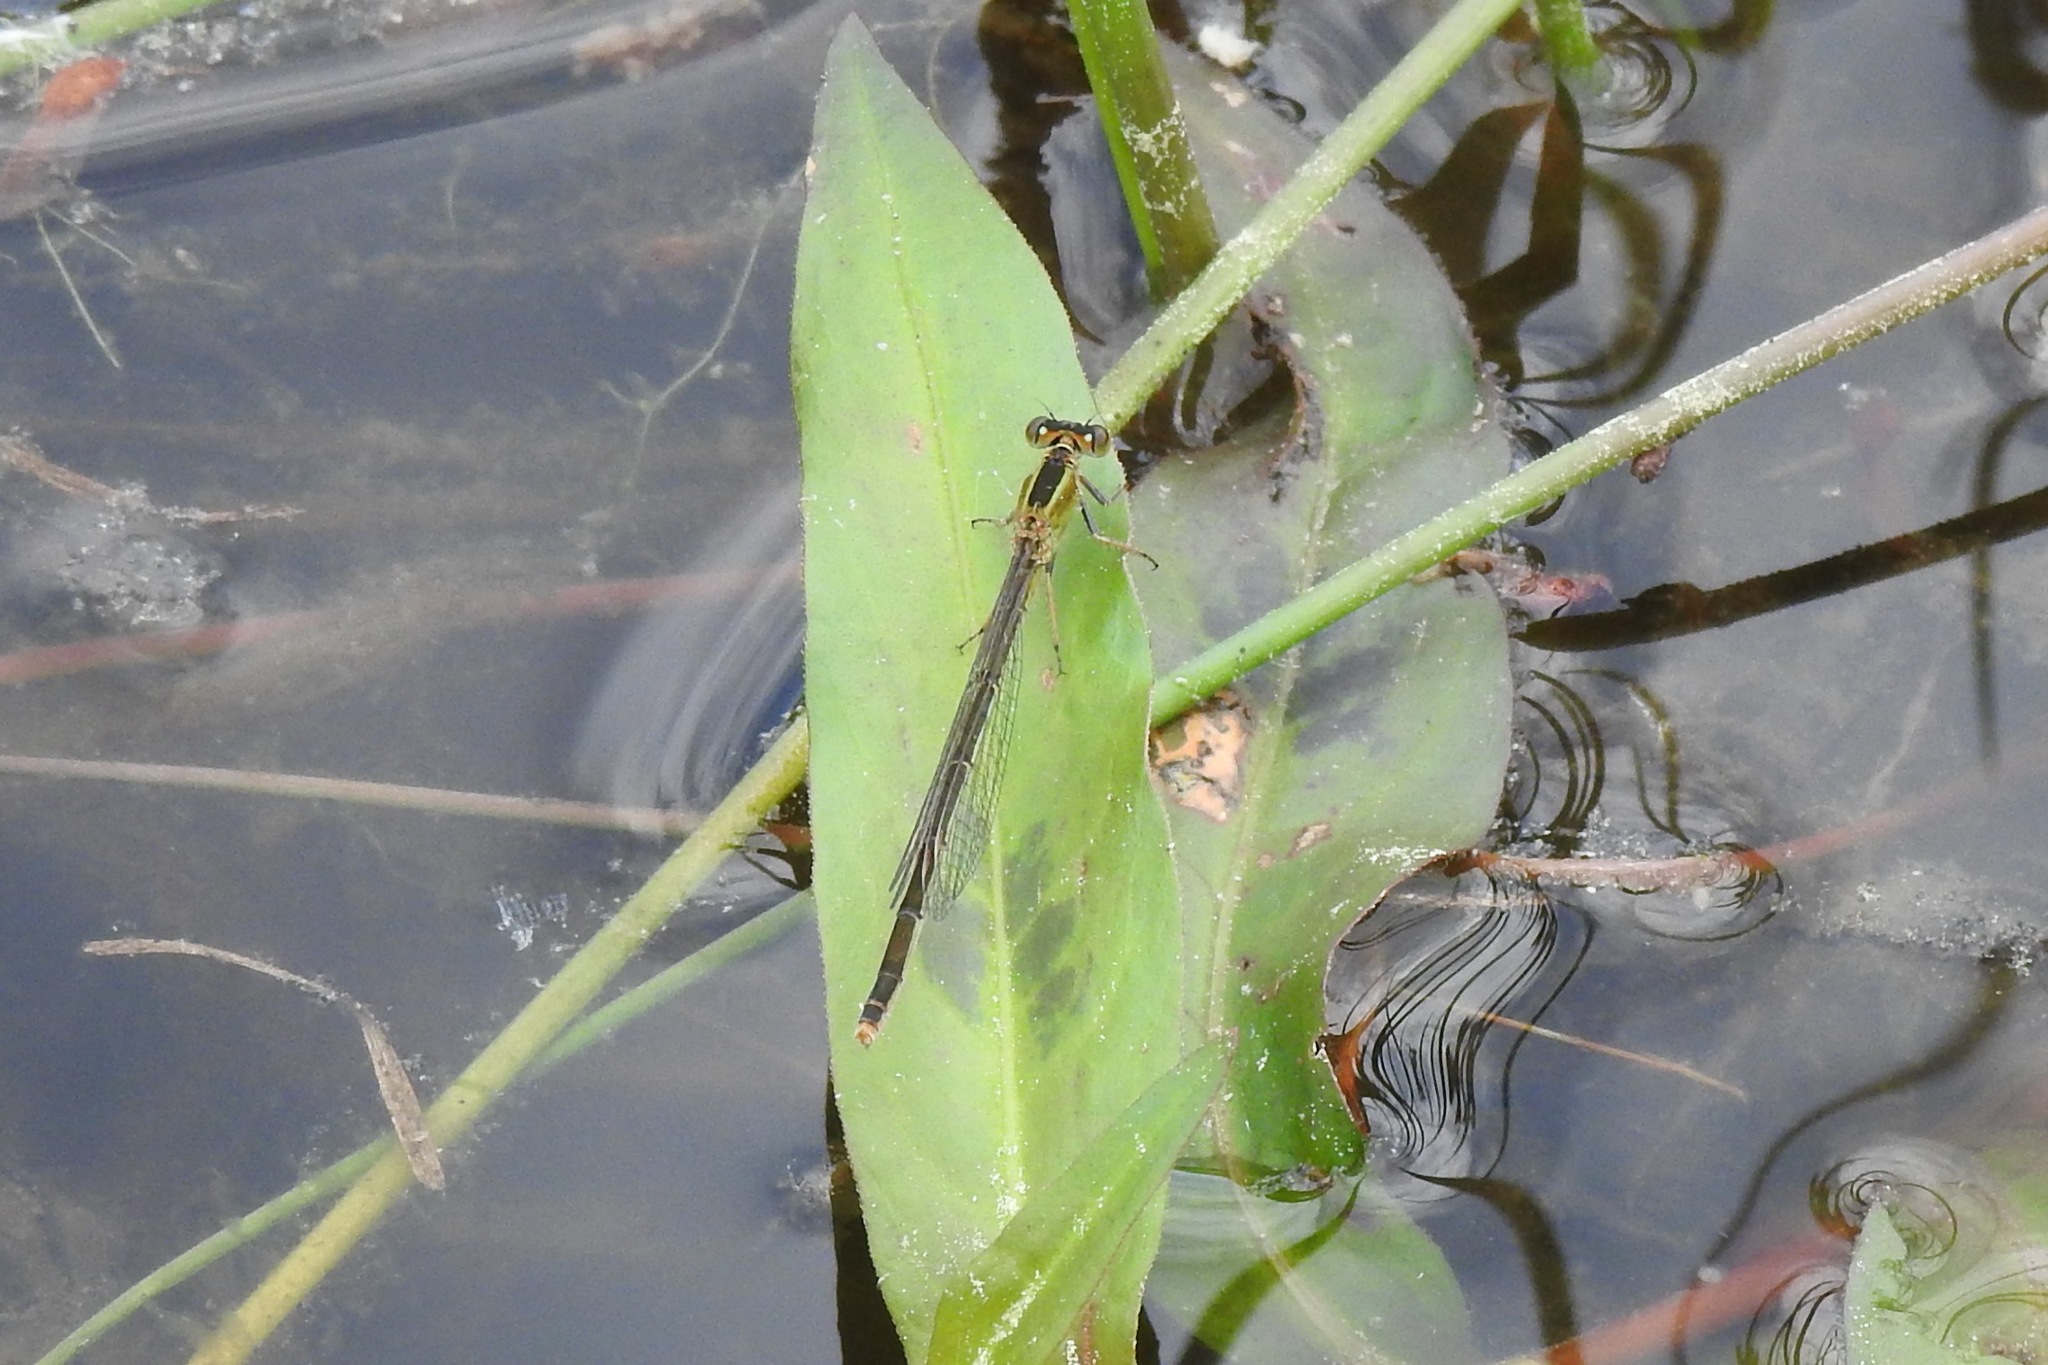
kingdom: Animalia
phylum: Arthropoda
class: Insecta
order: Odonata
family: Coenagrionidae
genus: Ischnura
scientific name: Ischnura ramburii
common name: Rambur's forktail
